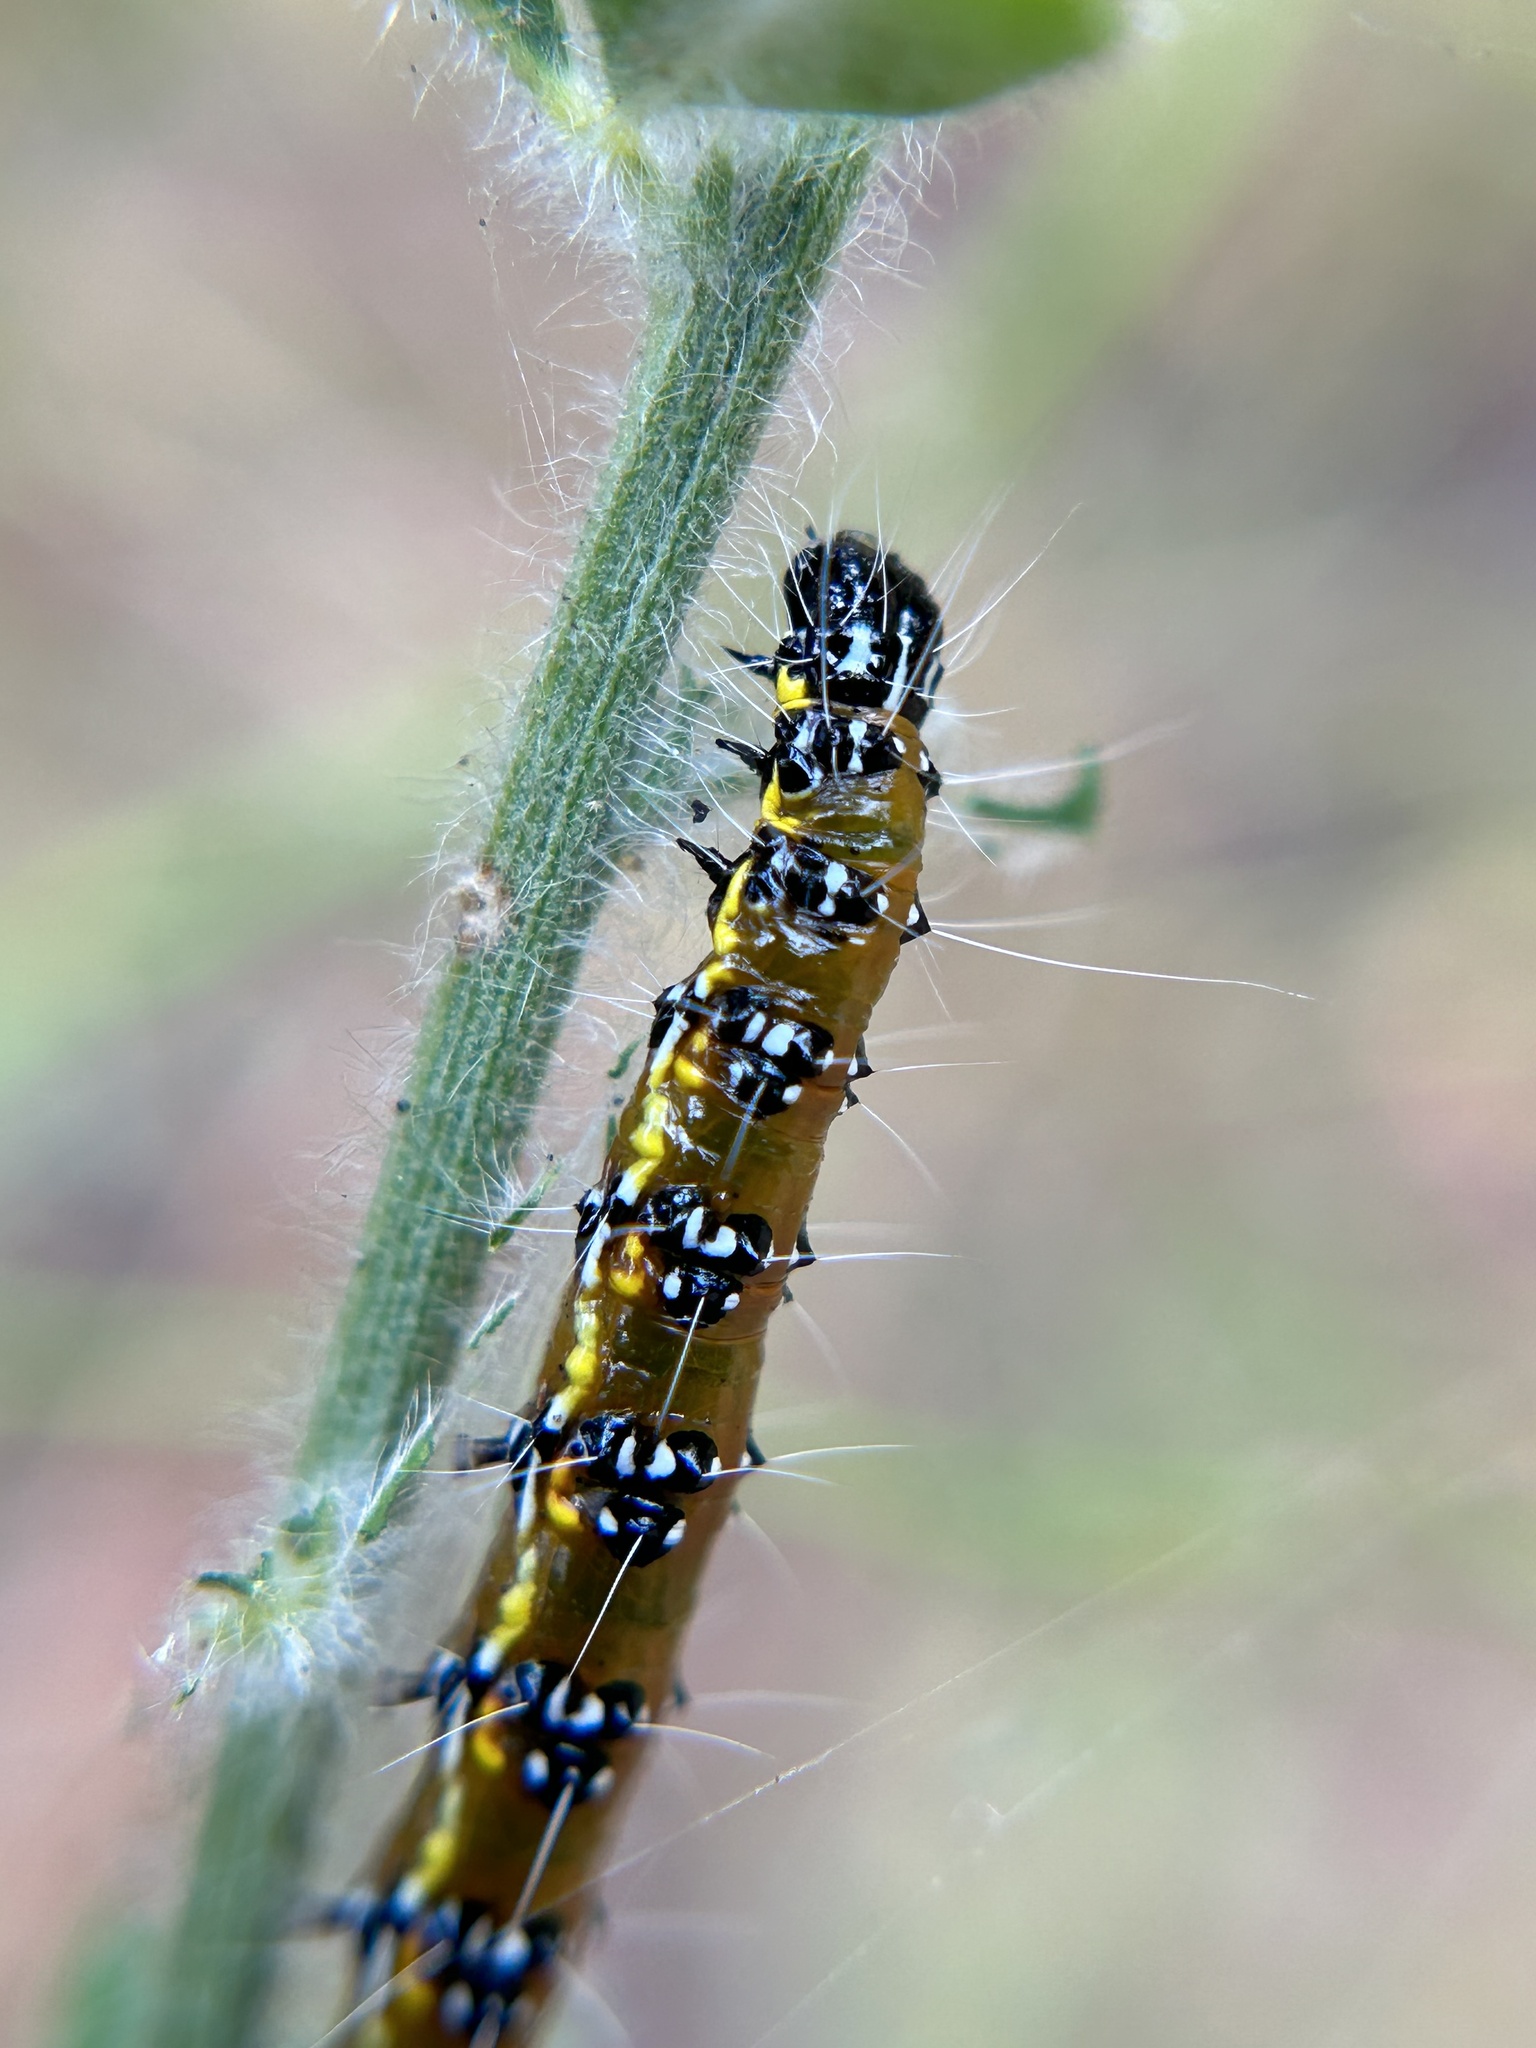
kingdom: Animalia
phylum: Arthropoda
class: Insecta
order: Lepidoptera
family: Crambidae
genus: Uresiphita
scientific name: Uresiphita reversalis
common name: Genista broom moth
